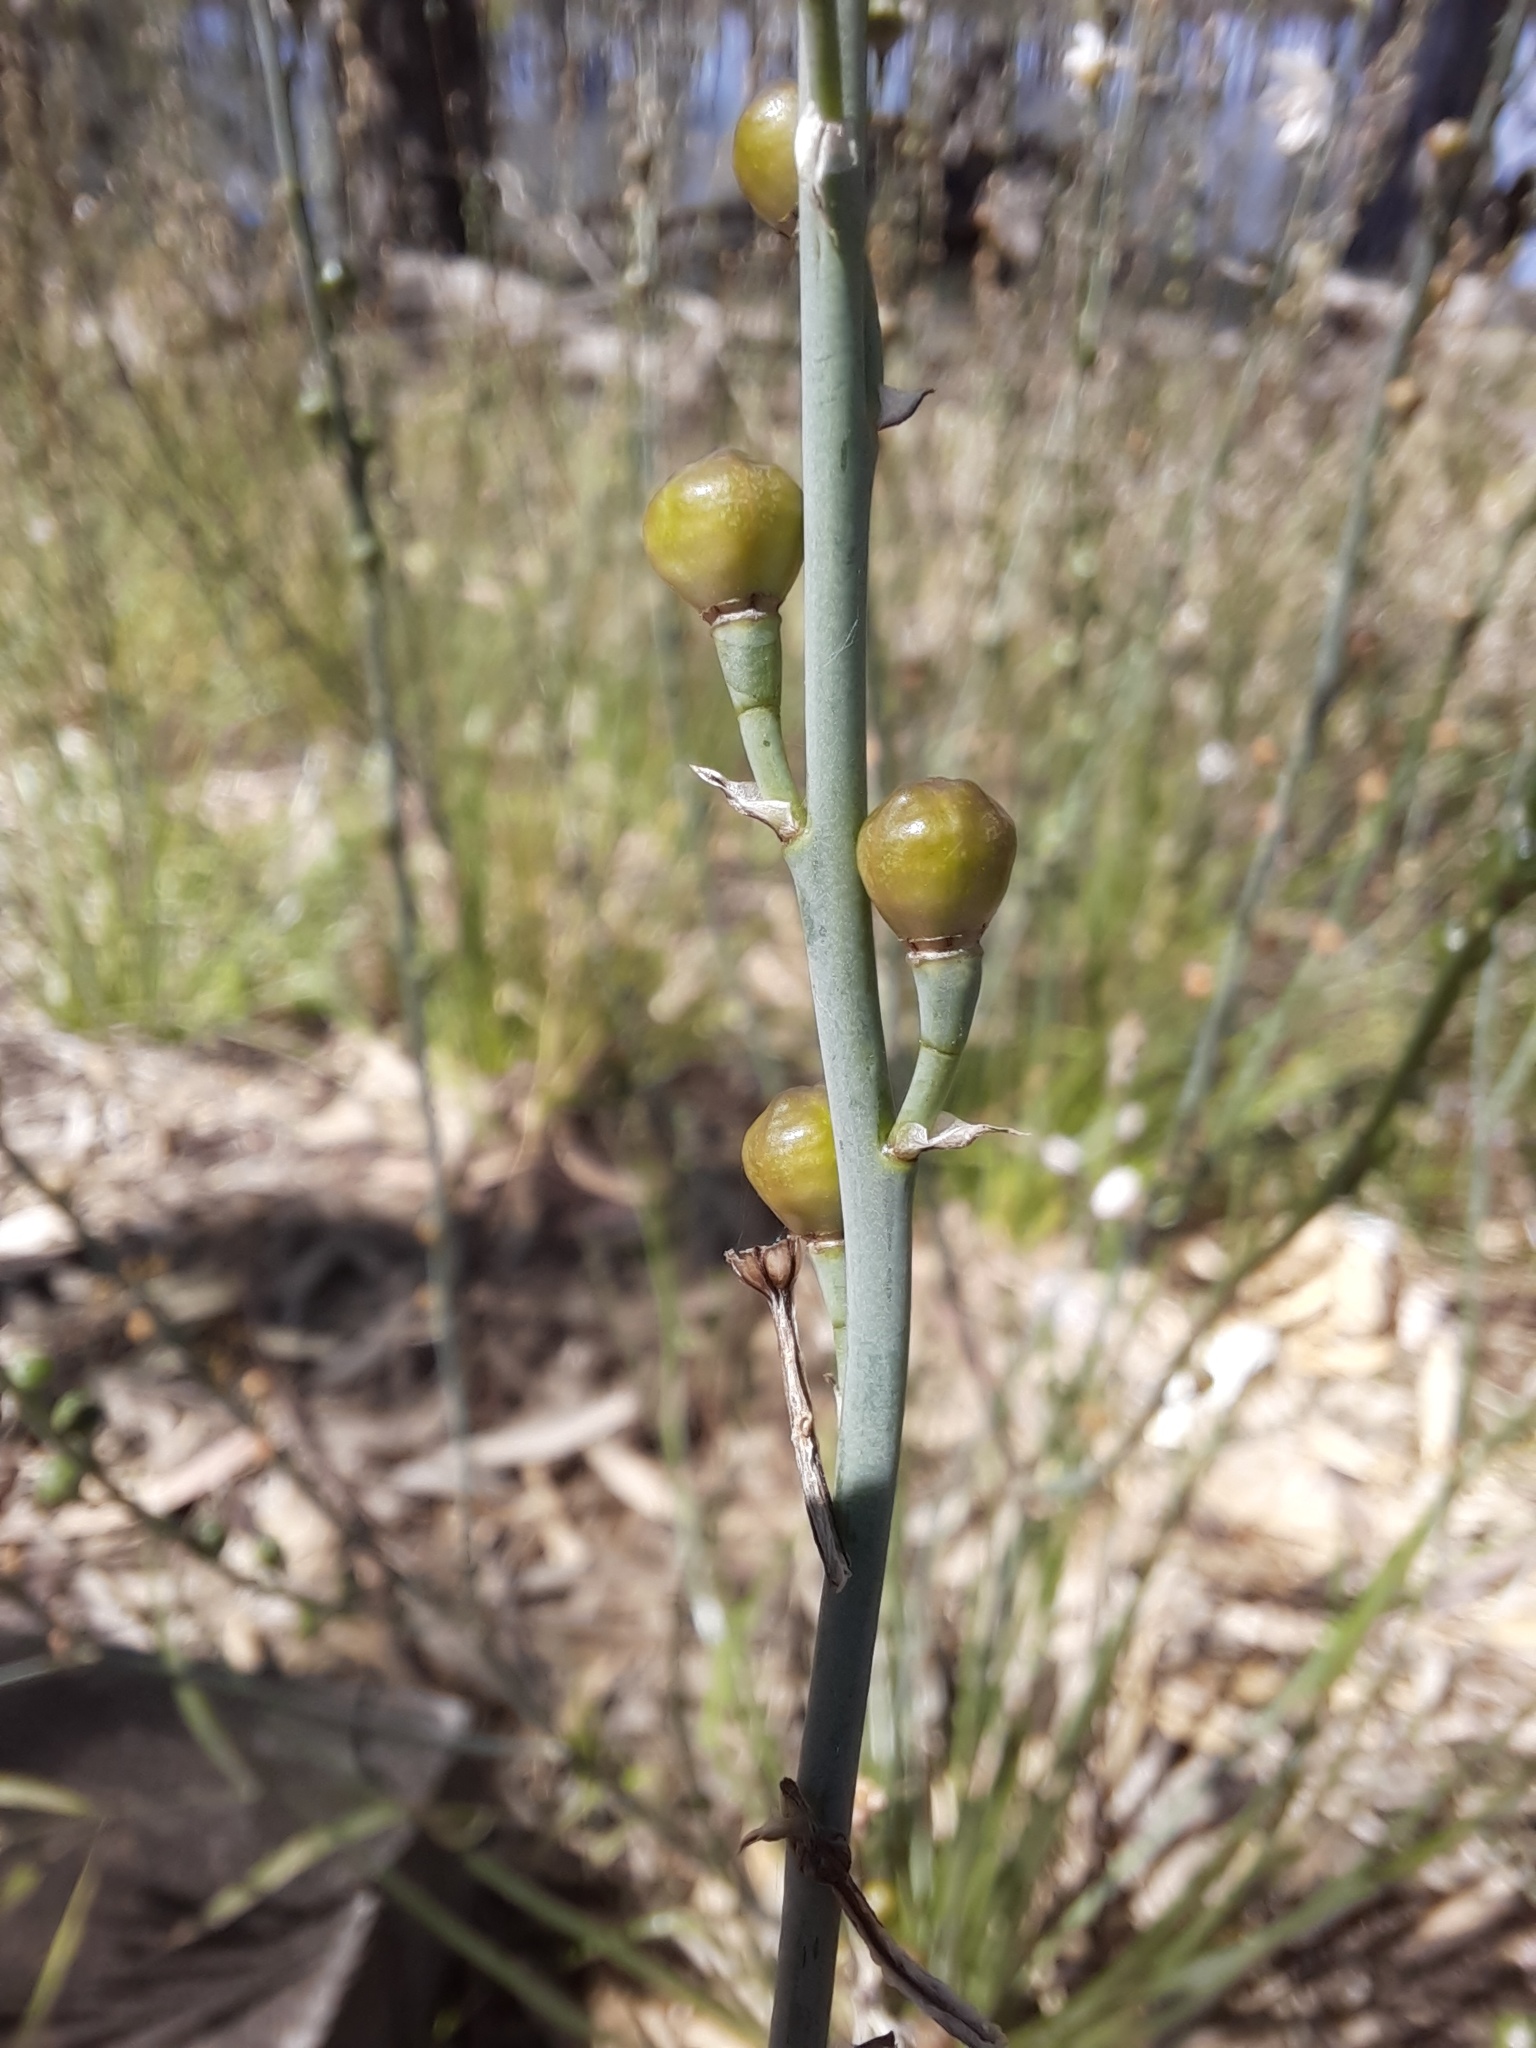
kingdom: Plantae
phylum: Tracheophyta
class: Liliopsida
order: Asparagales
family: Asphodelaceae
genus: Asphodelus
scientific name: Asphodelus fistulosus
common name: Onionweed
